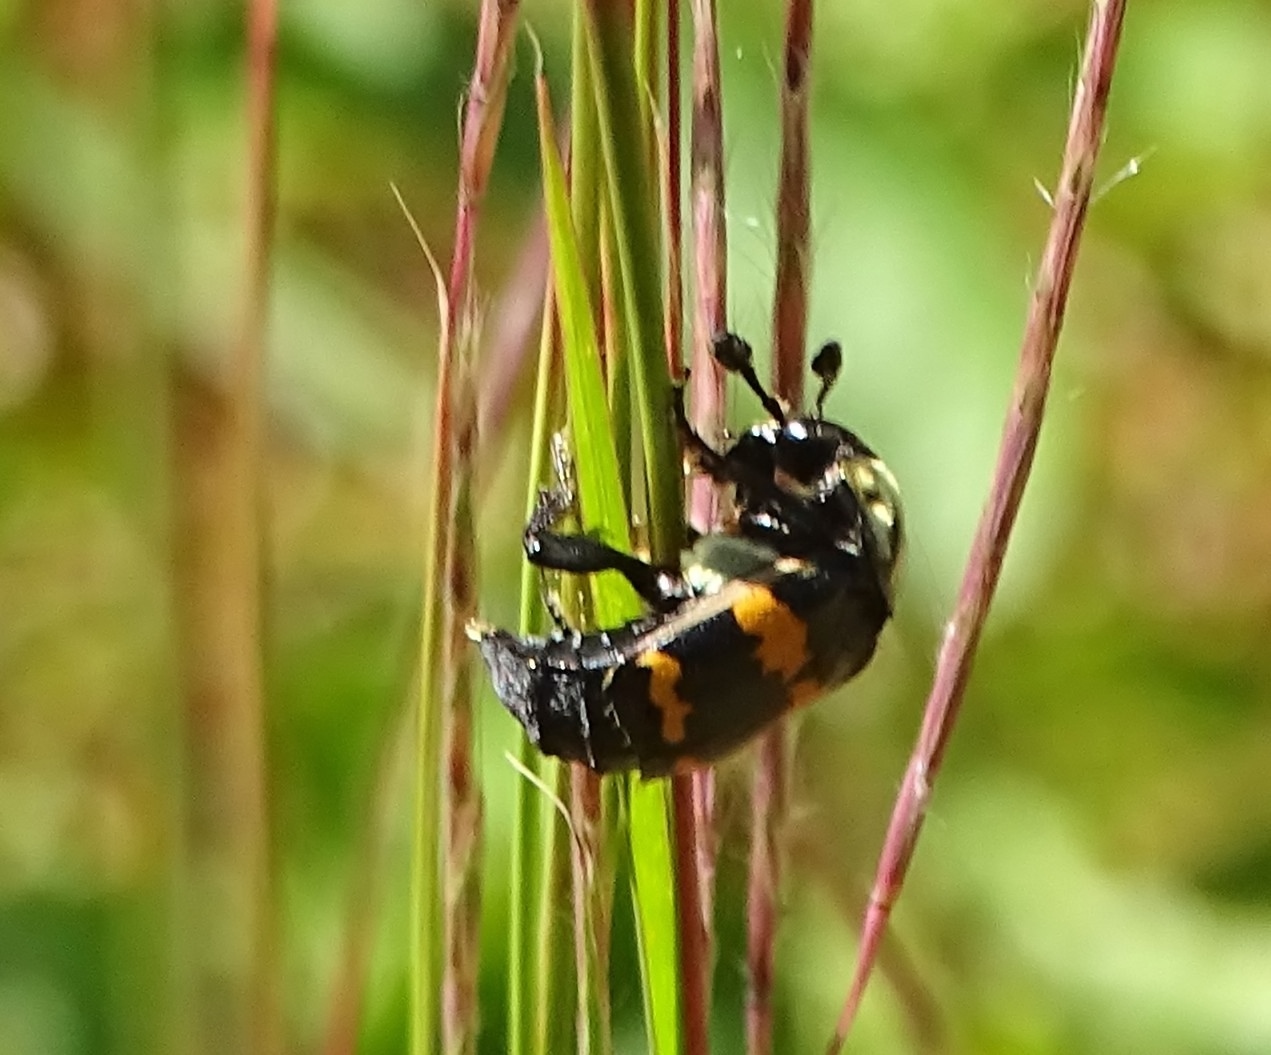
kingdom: Animalia
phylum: Arthropoda
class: Insecta
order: Coleoptera
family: Staphylinidae
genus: Nicrophorus
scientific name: Nicrophorus tomentosus
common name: Tomentose burying beetle
